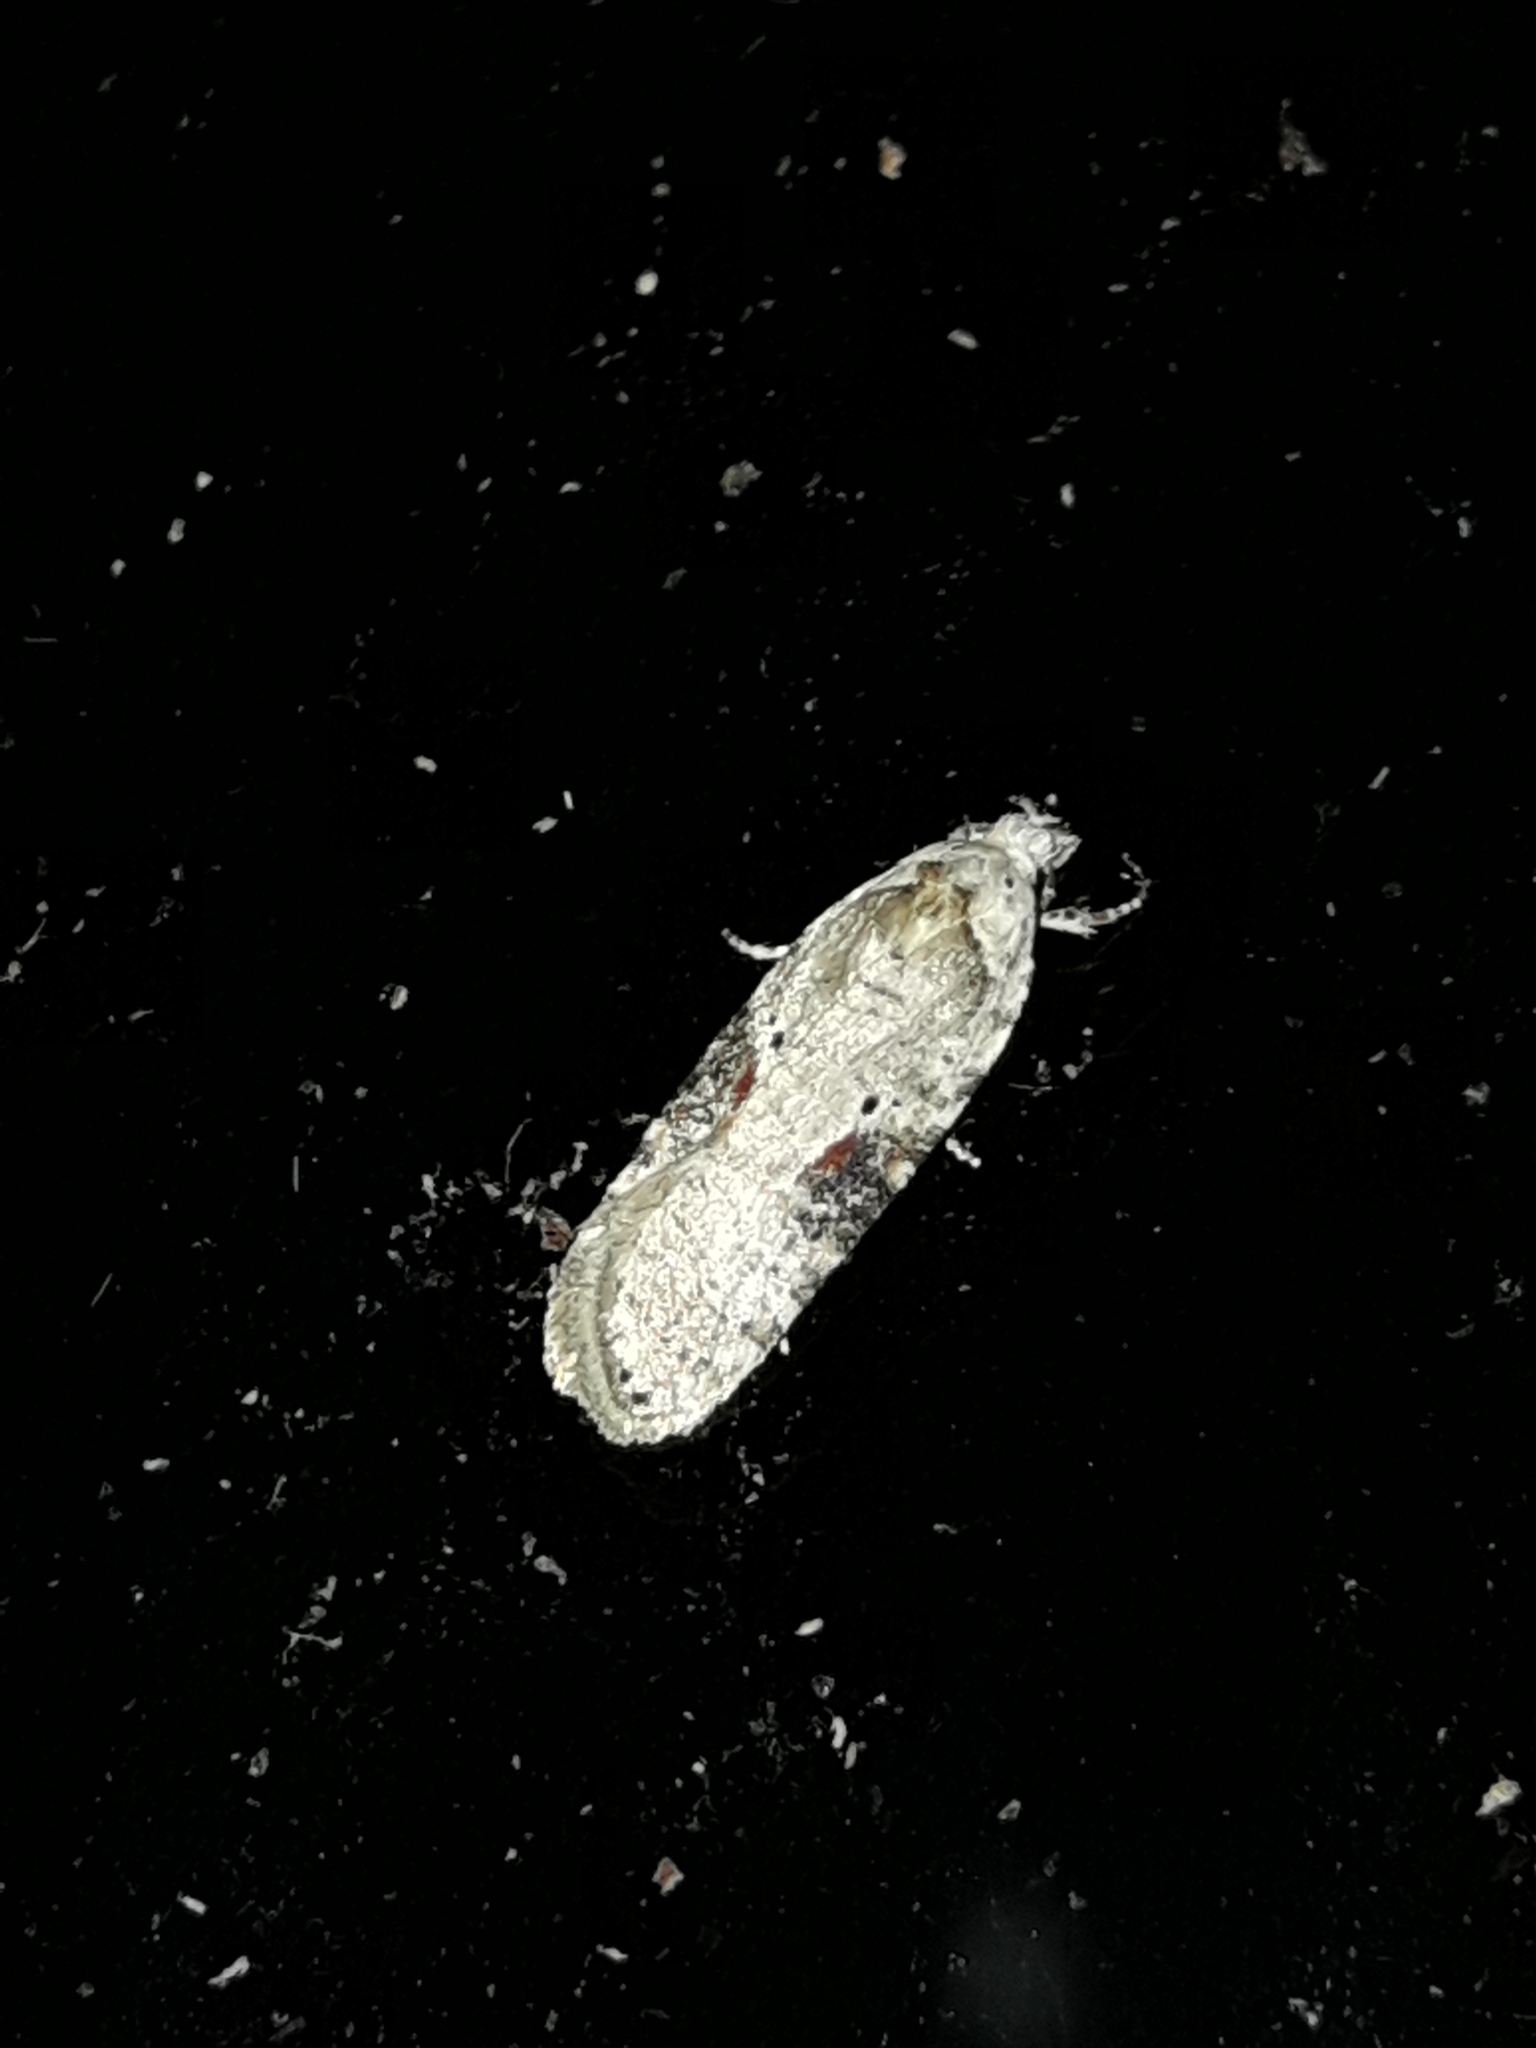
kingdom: Animalia
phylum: Arthropoda
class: Insecta
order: Lepidoptera
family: Depressariidae
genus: Agonopterix
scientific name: Agonopterix alstroemeriana
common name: Moth
